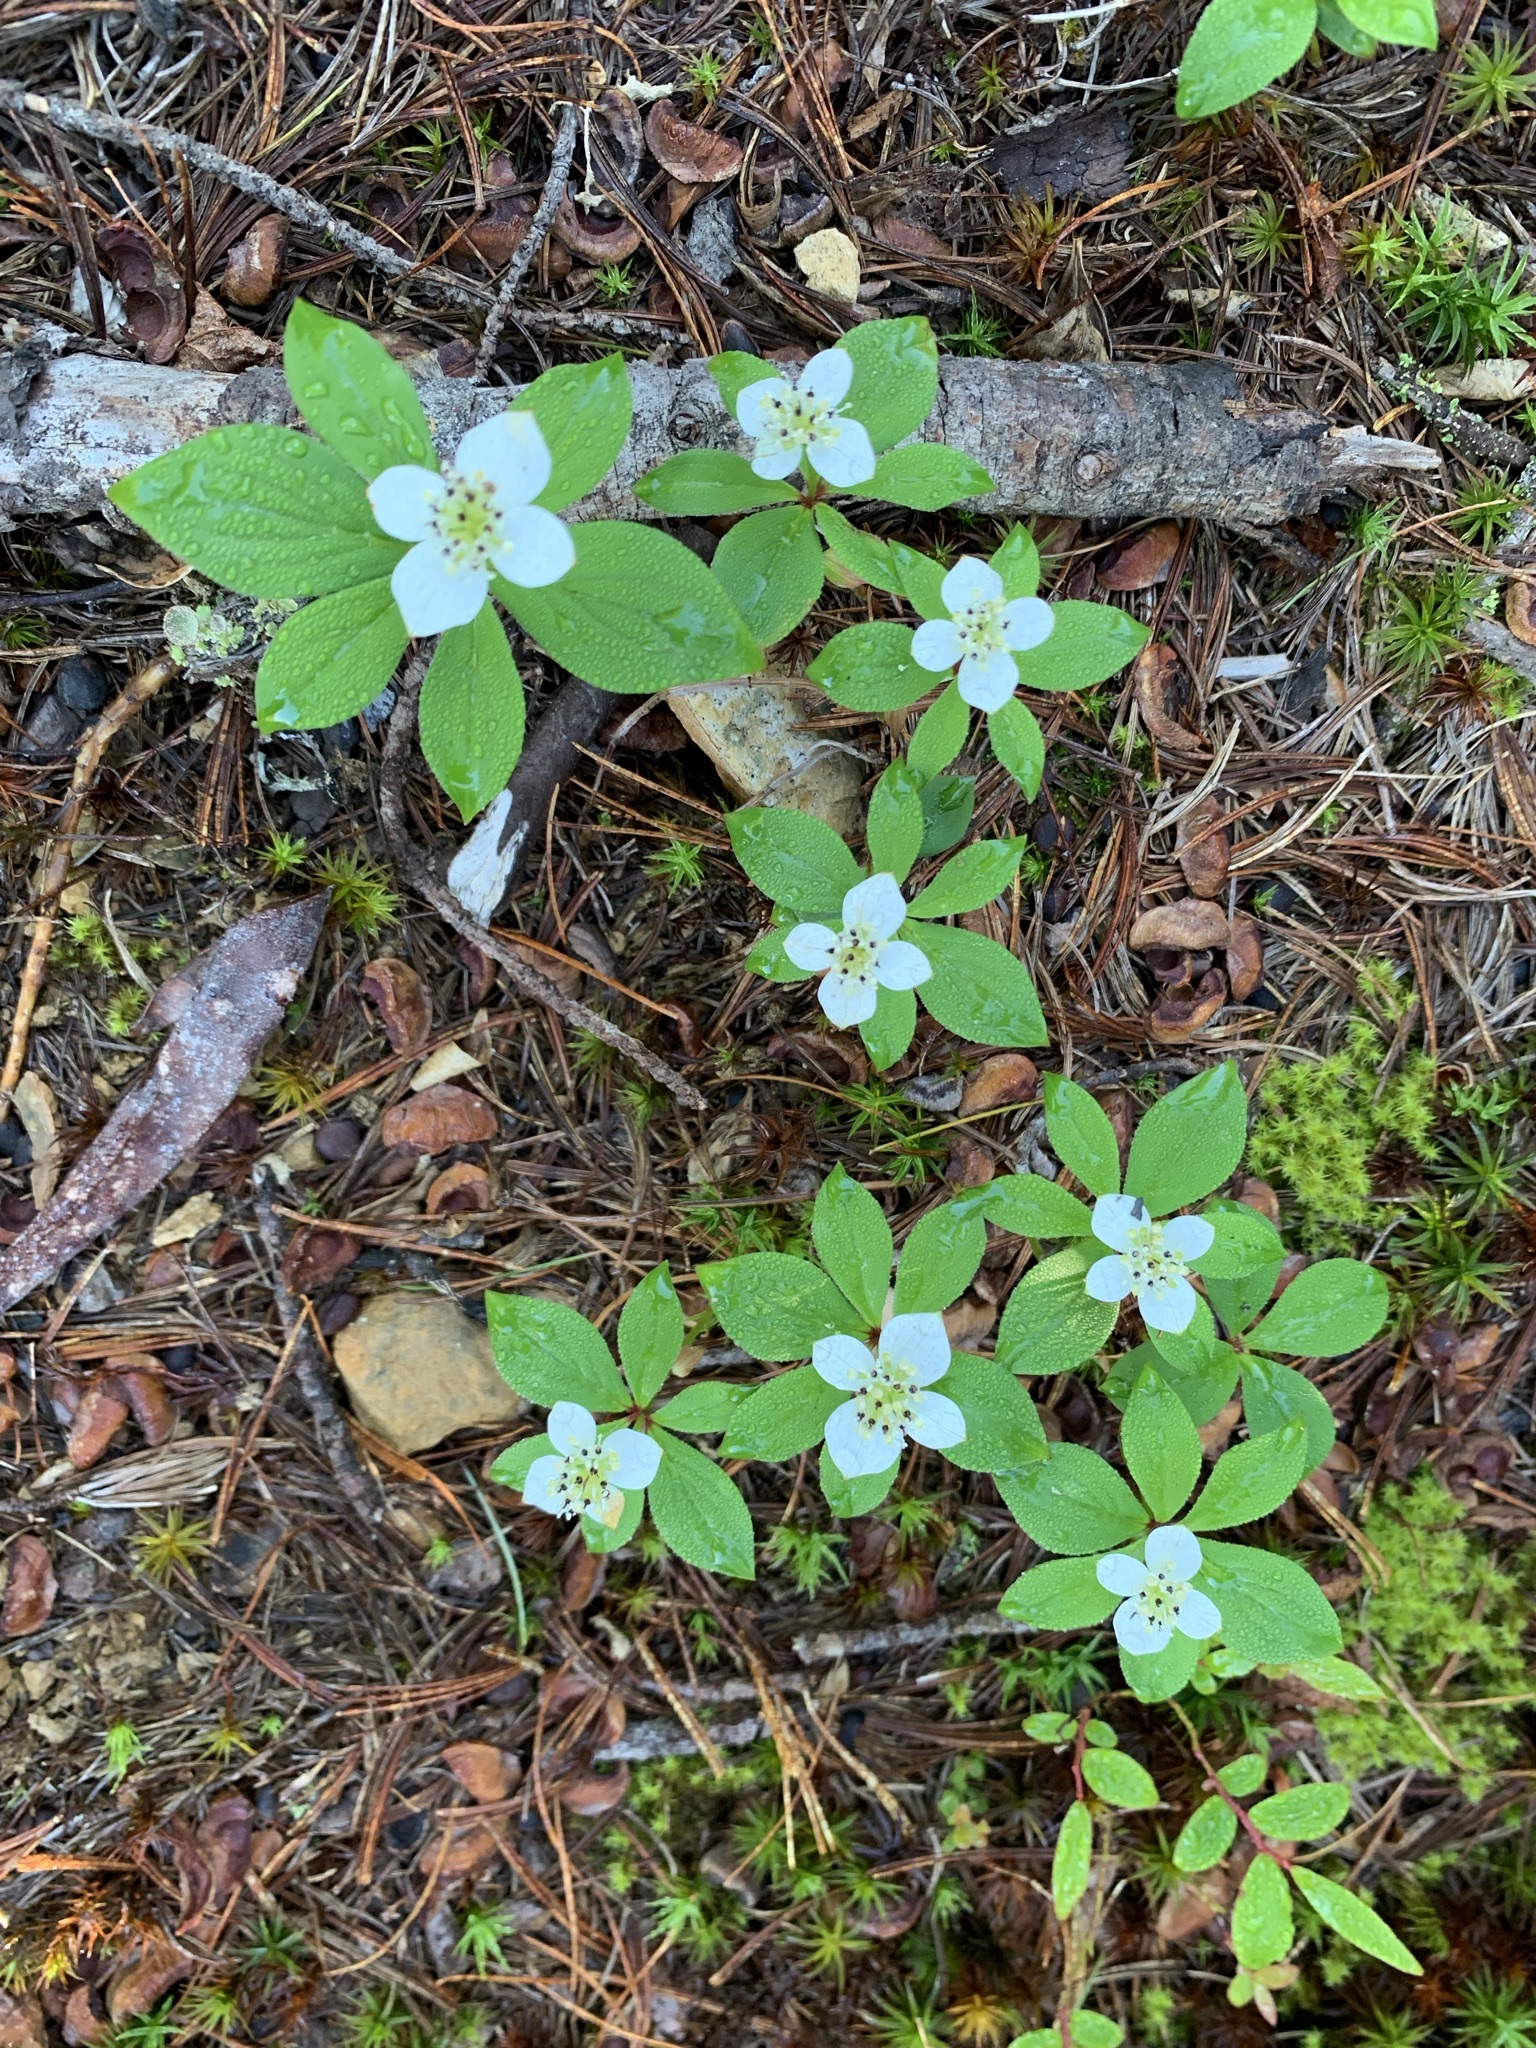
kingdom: Plantae
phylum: Tracheophyta
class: Magnoliopsida
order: Cornales
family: Cornaceae
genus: Cornus
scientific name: Cornus canadensis
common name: Creeping dogwood
